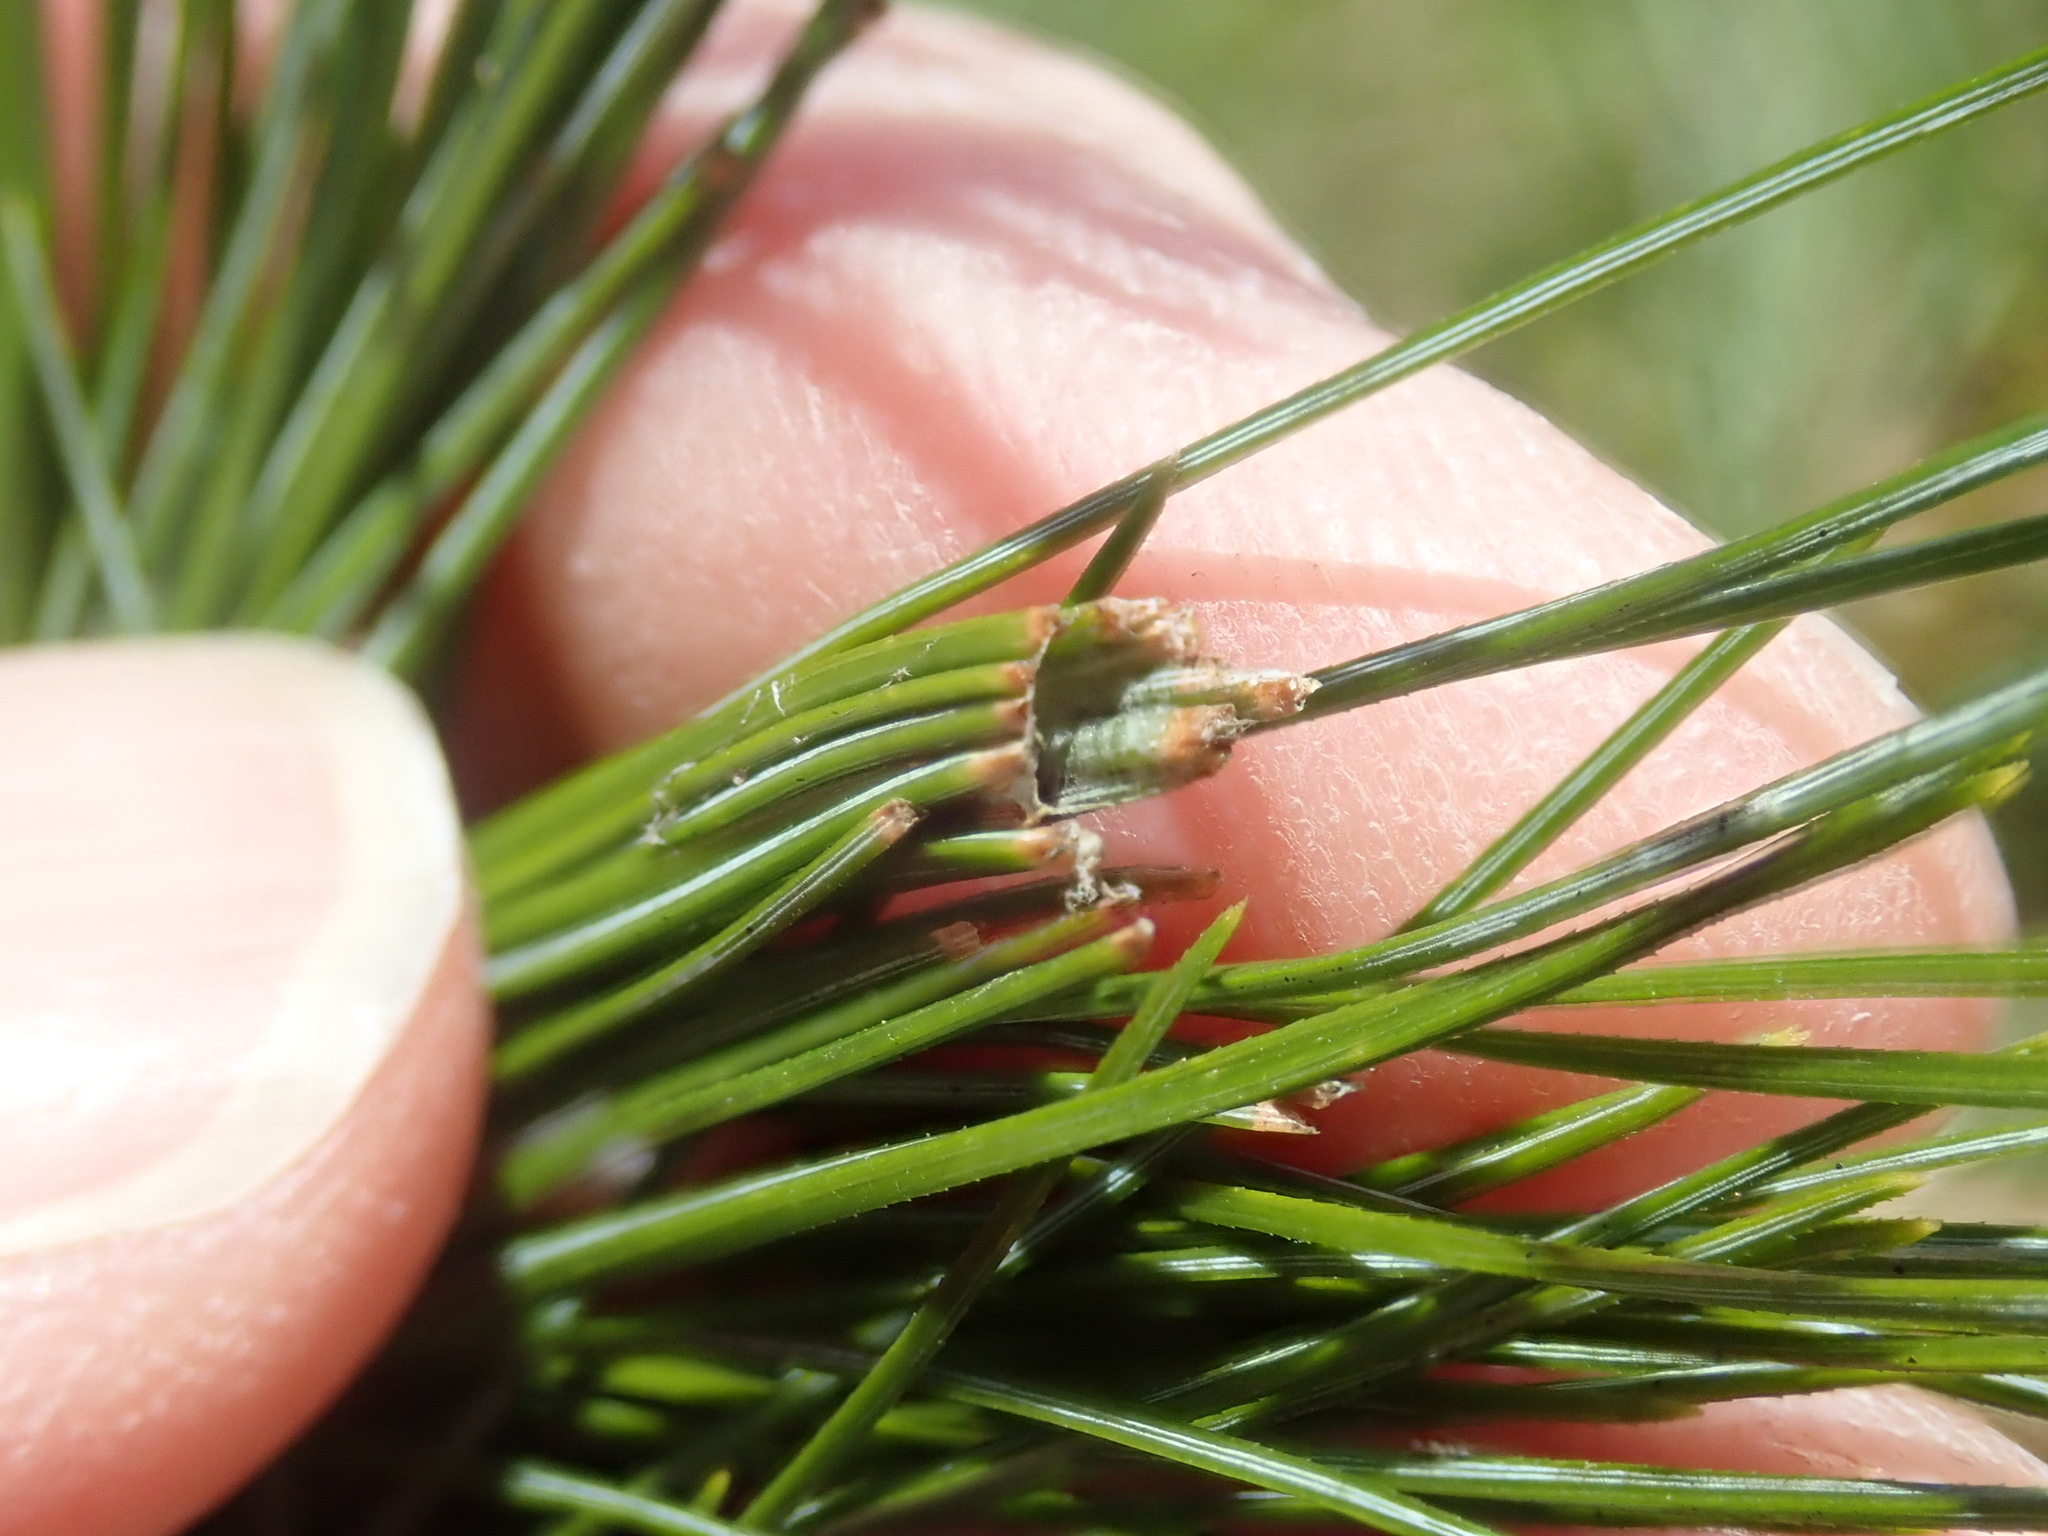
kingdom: Animalia
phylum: Arthropoda
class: Insecta
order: Lepidoptera
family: Tortricidae
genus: Argyrotaenia
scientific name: Argyrotaenia pinatubana
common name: Pine tube moth
